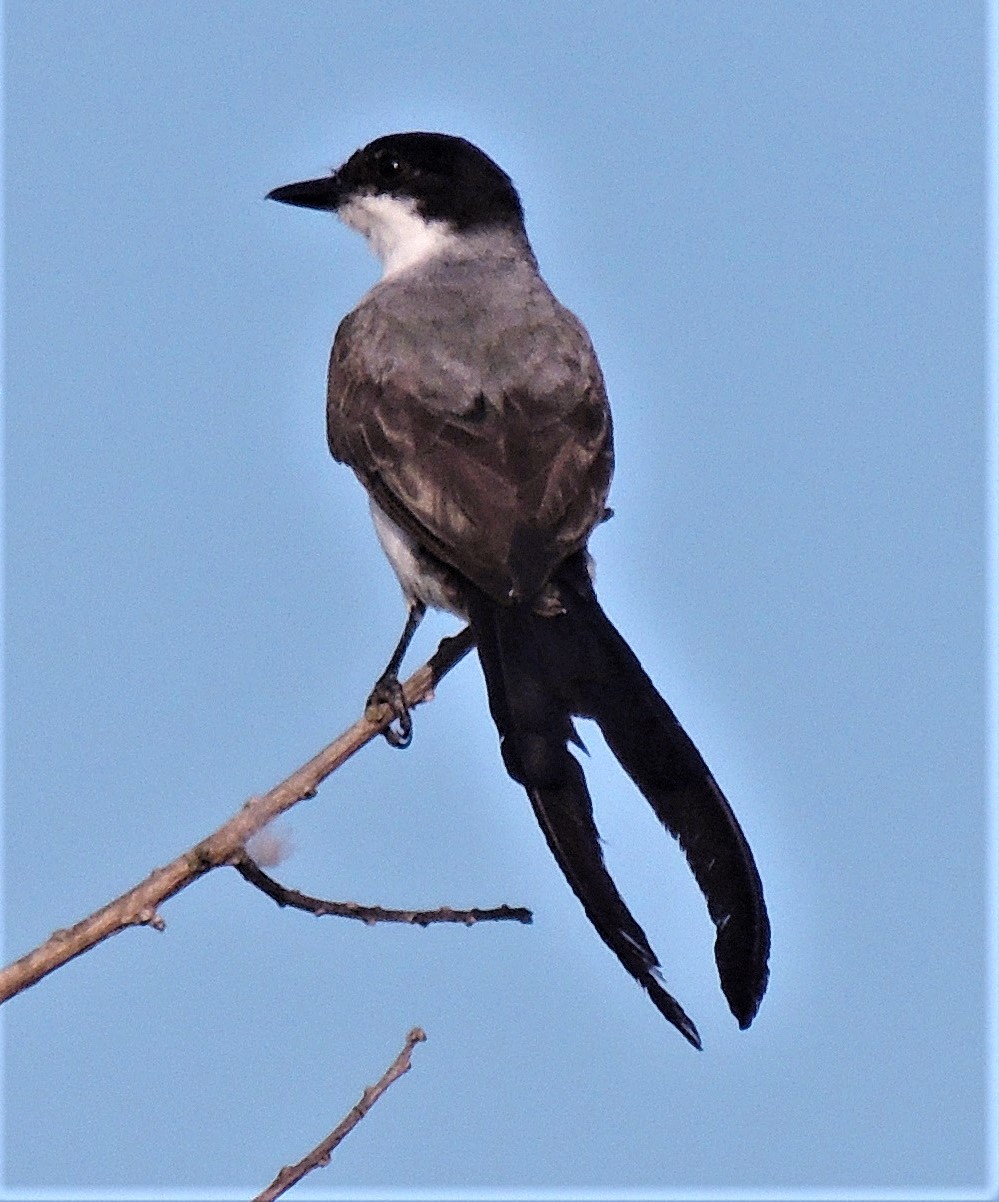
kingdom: Animalia
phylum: Chordata
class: Aves
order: Passeriformes
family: Tyrannidae
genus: Tyrannus
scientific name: Tyrannus savana
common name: Fork-tailed flycatcher
